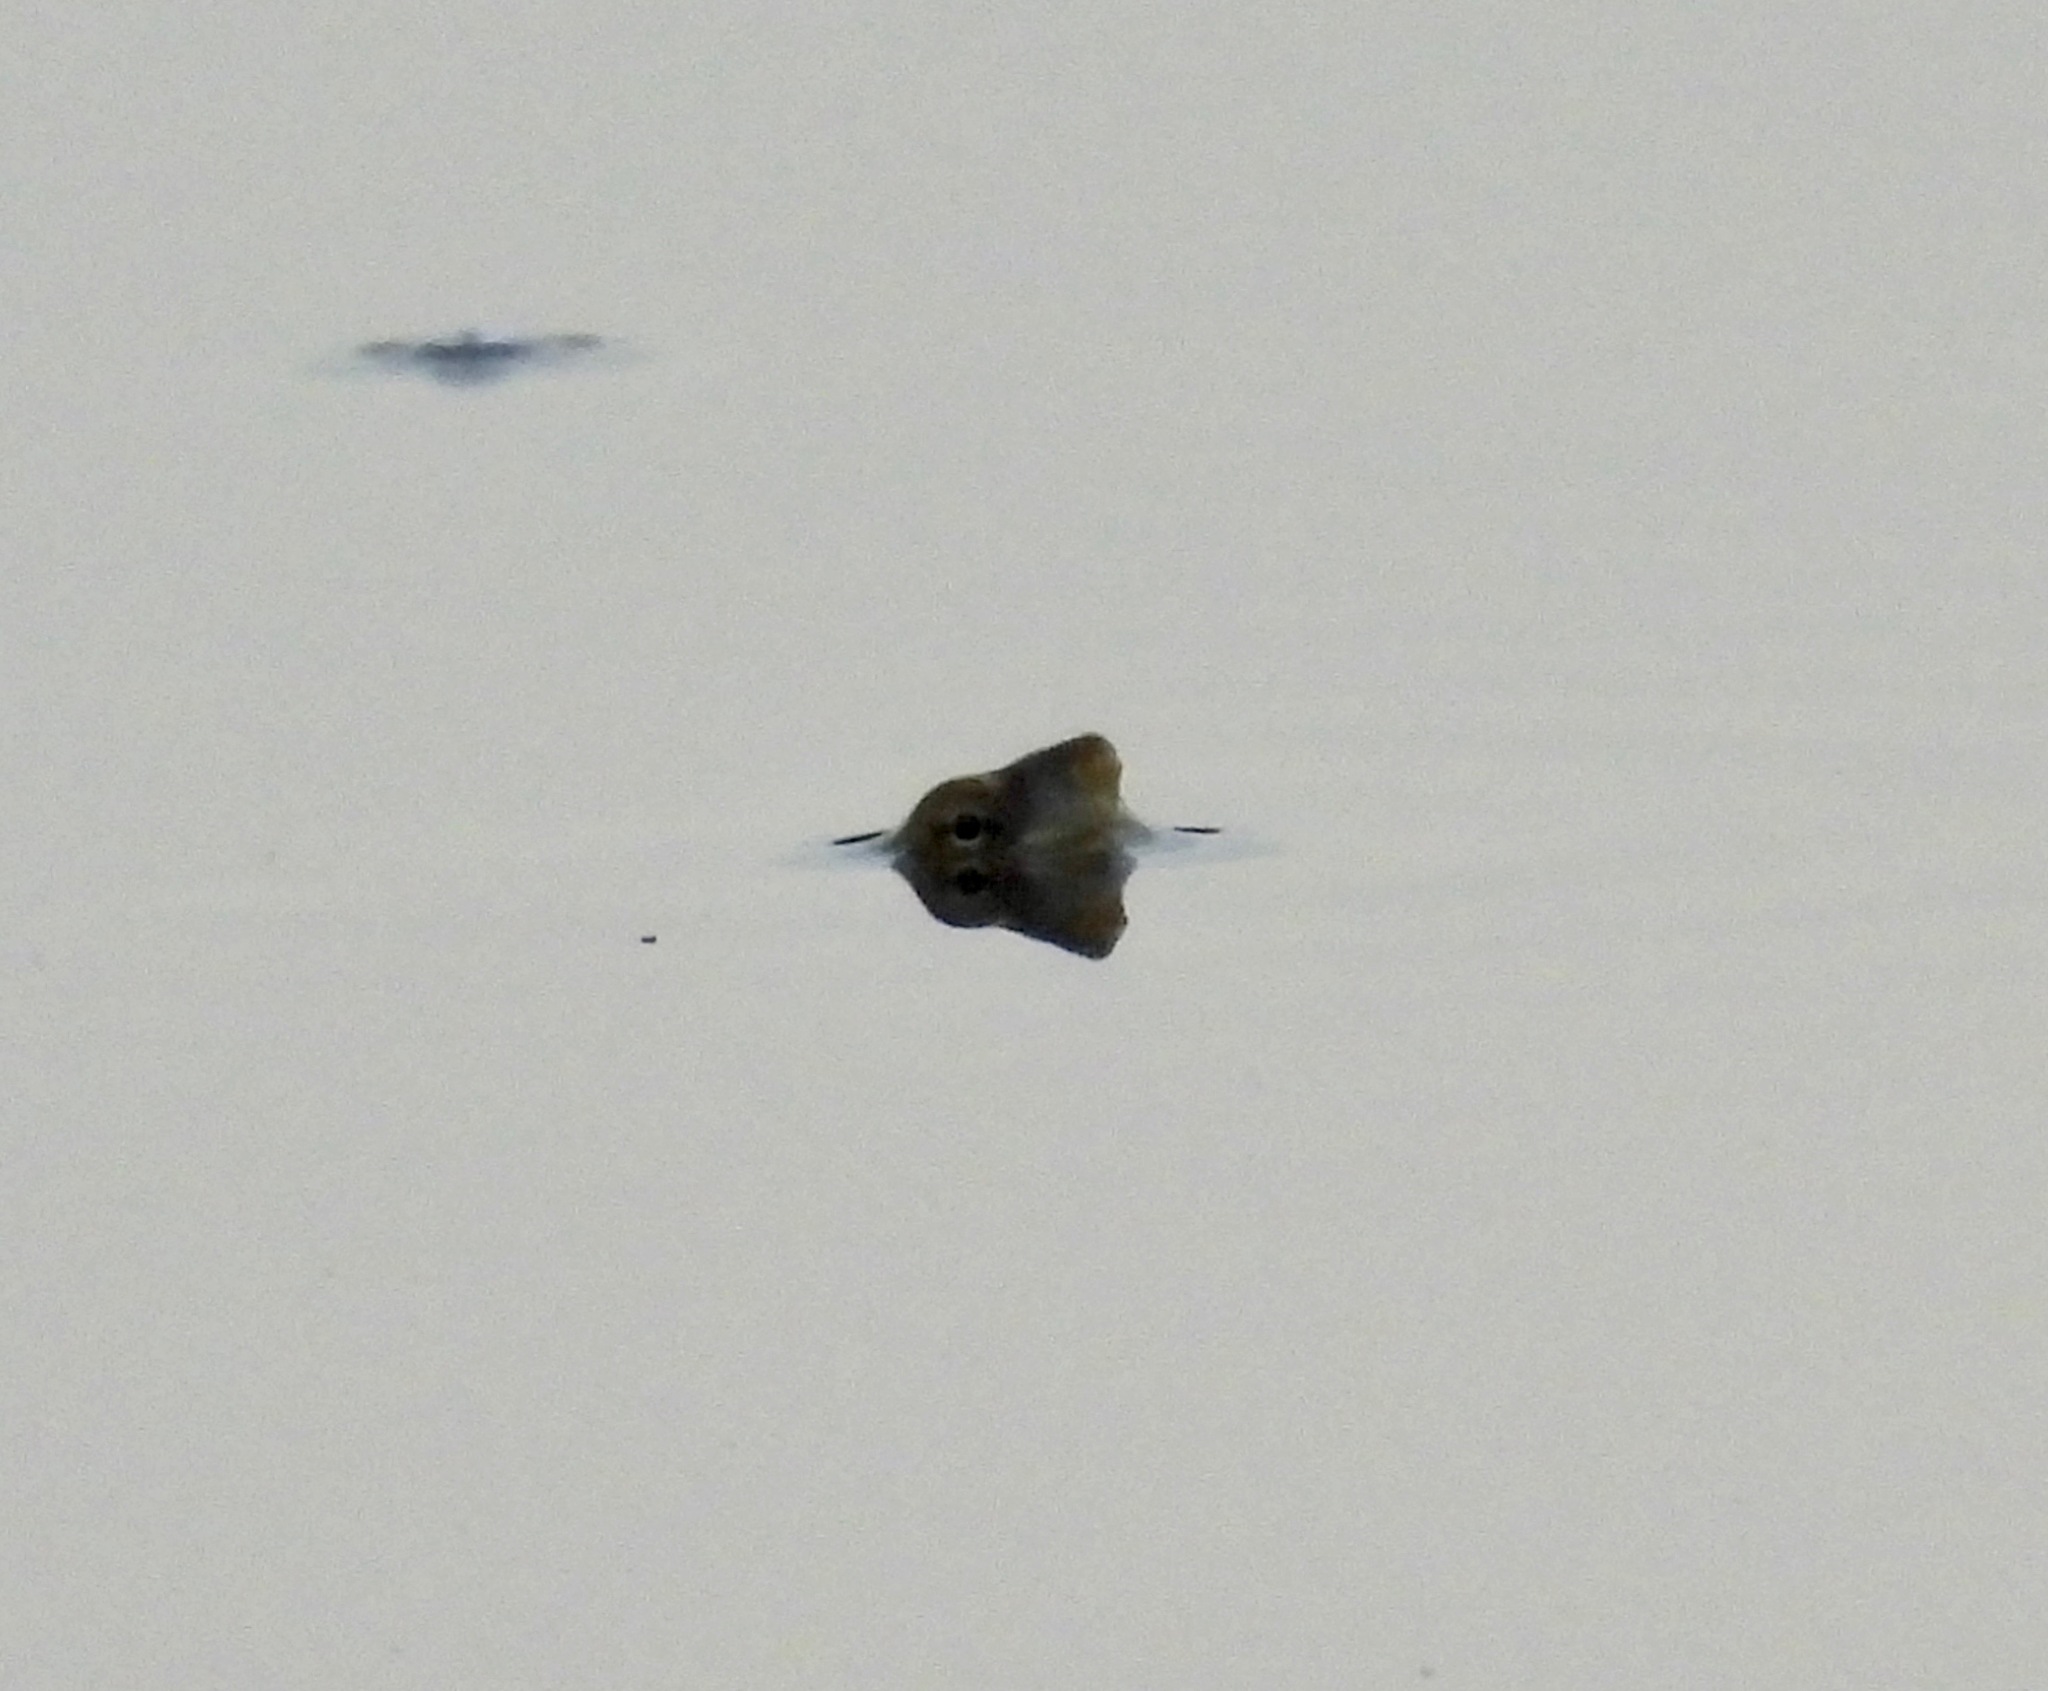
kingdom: Animalia
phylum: Chordata
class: Testudines
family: Kinosternidae
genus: Kinosternon
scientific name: Kinosternon flavescens
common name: Yellow mud turtle
